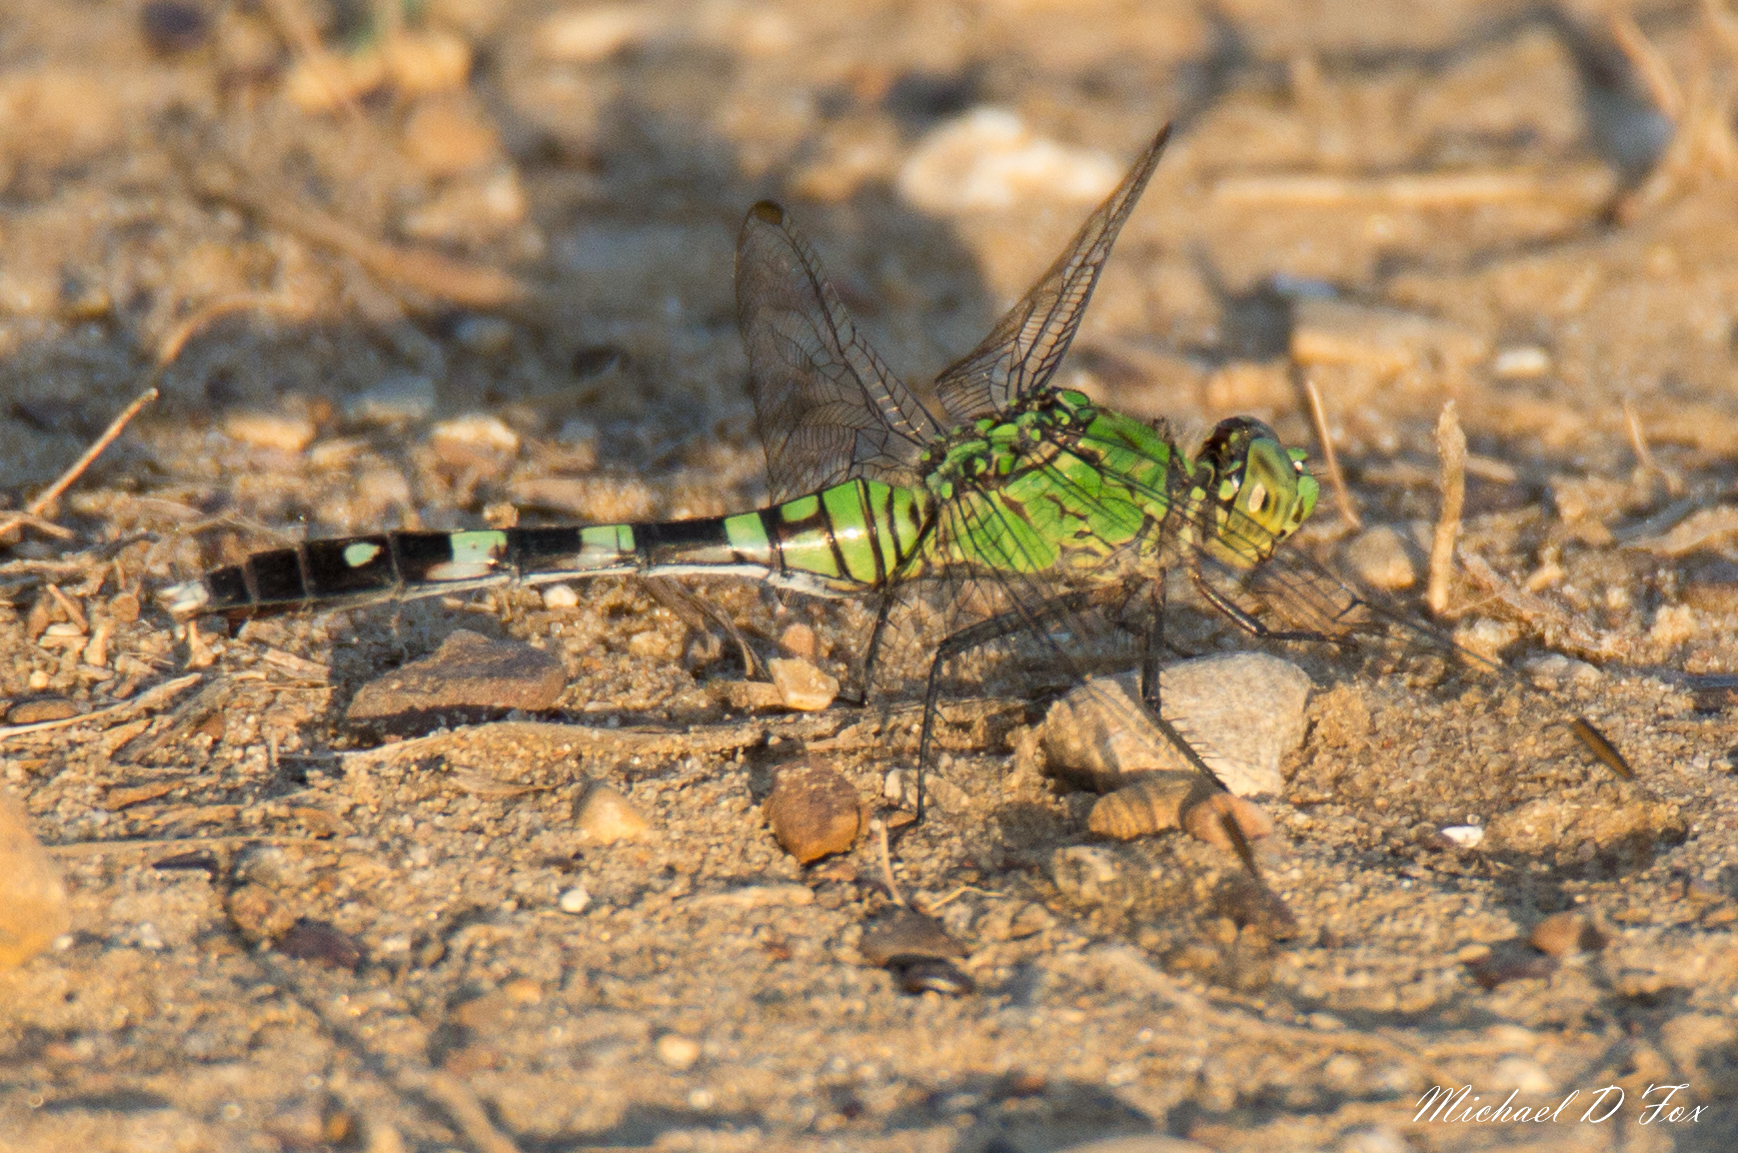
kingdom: Animalia
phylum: Arthropoda
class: Insecta
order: Odonata
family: Libellulidae
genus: Erythemis
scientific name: Erythemis simplicicollis
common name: Eastern pondhawk
